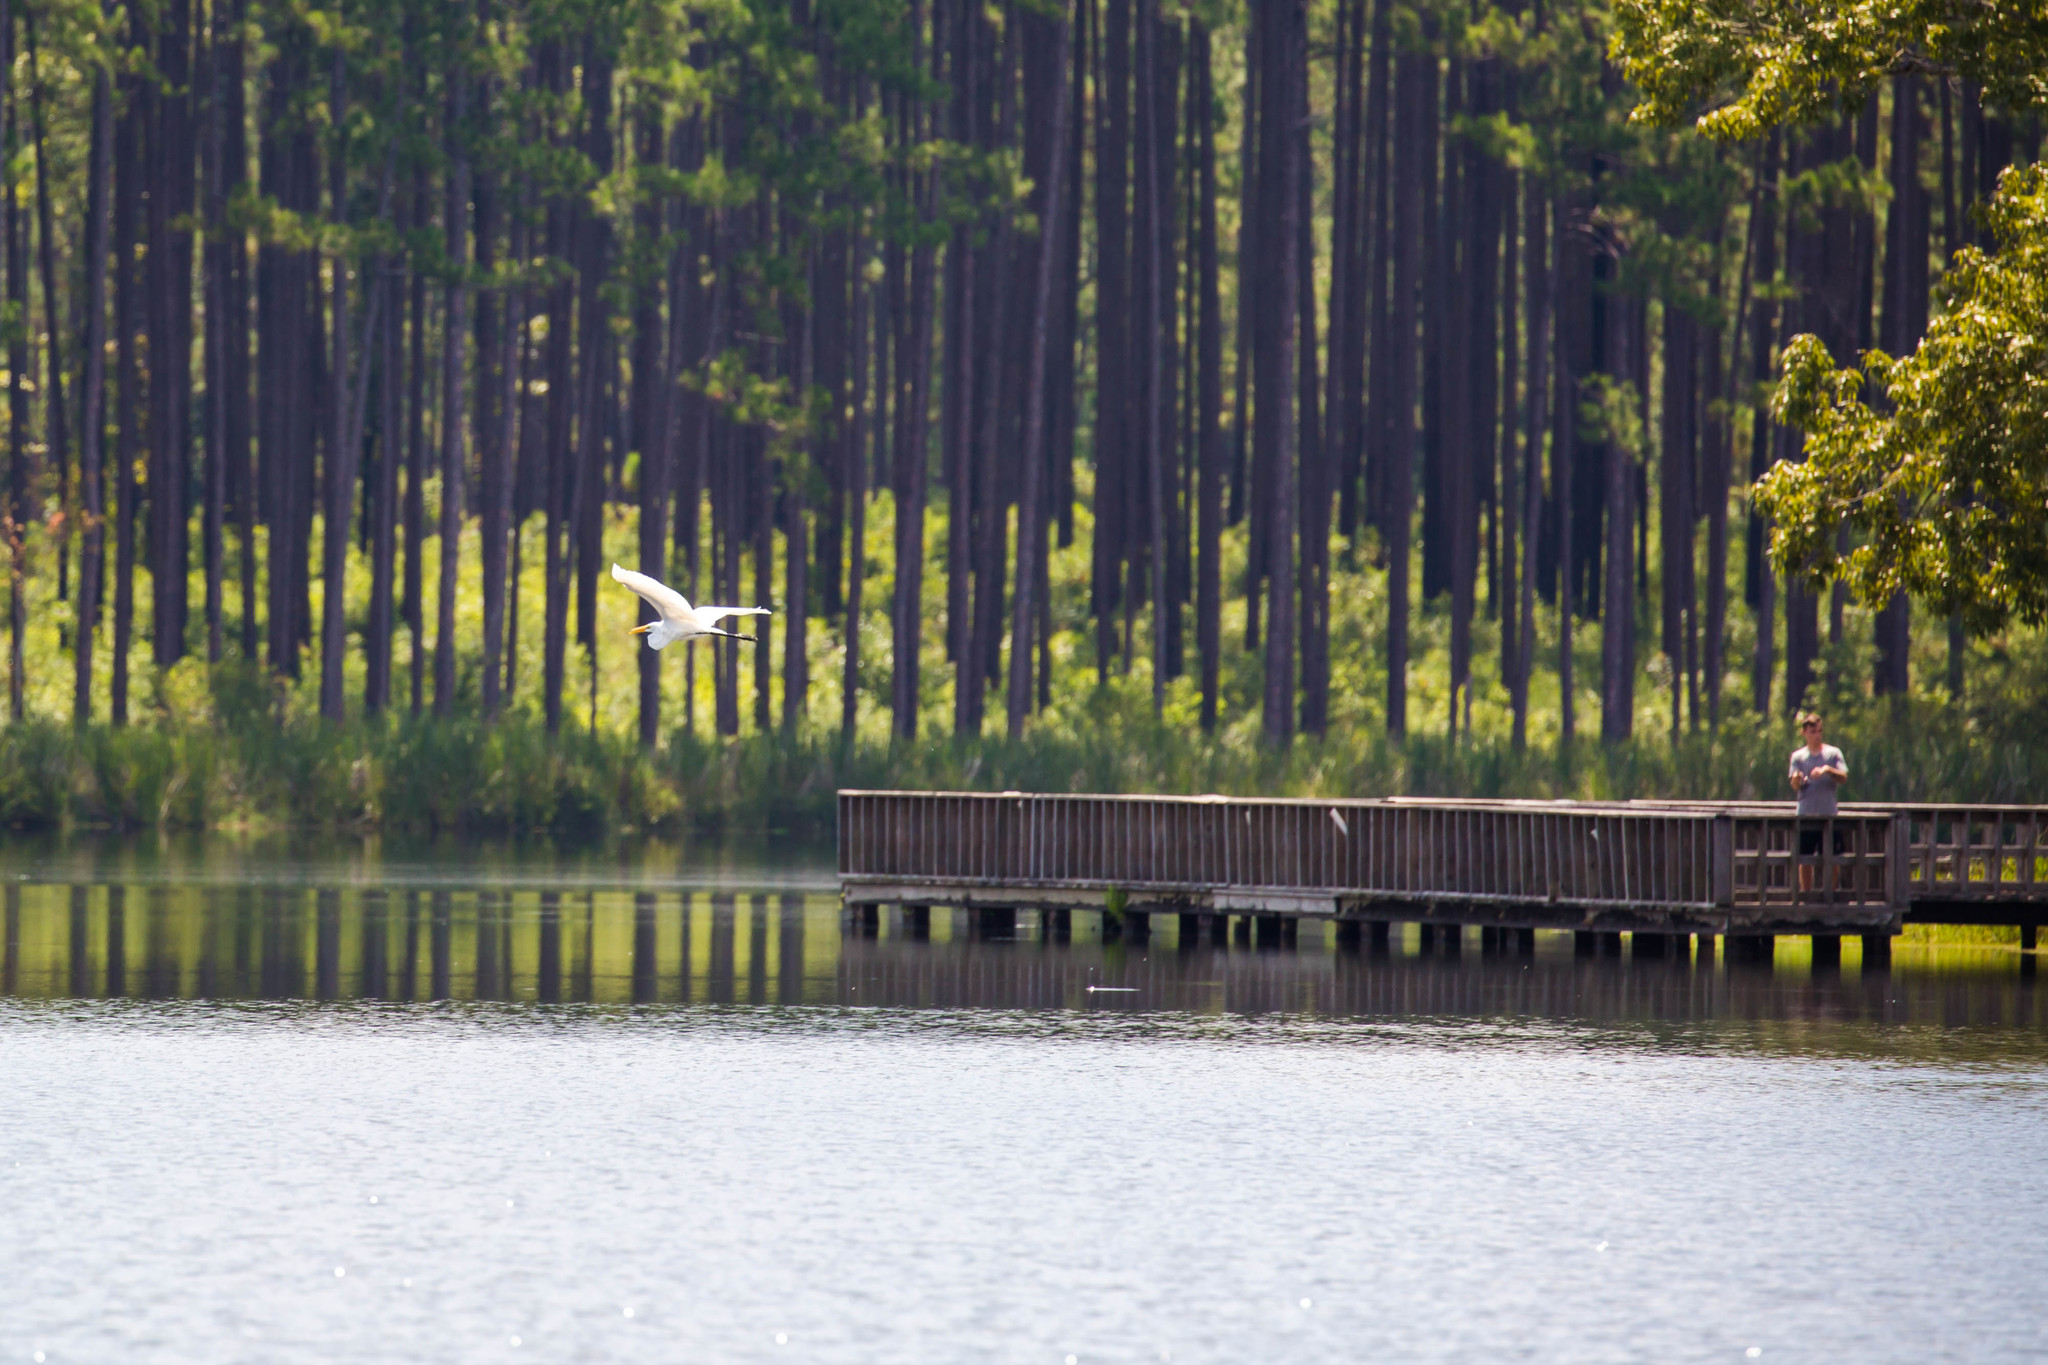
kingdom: Animalia
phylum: Chordata
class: Aves
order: Pelecaniformes
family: Ardeidae
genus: Ardea
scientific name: Ardea alba
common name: Great egret
